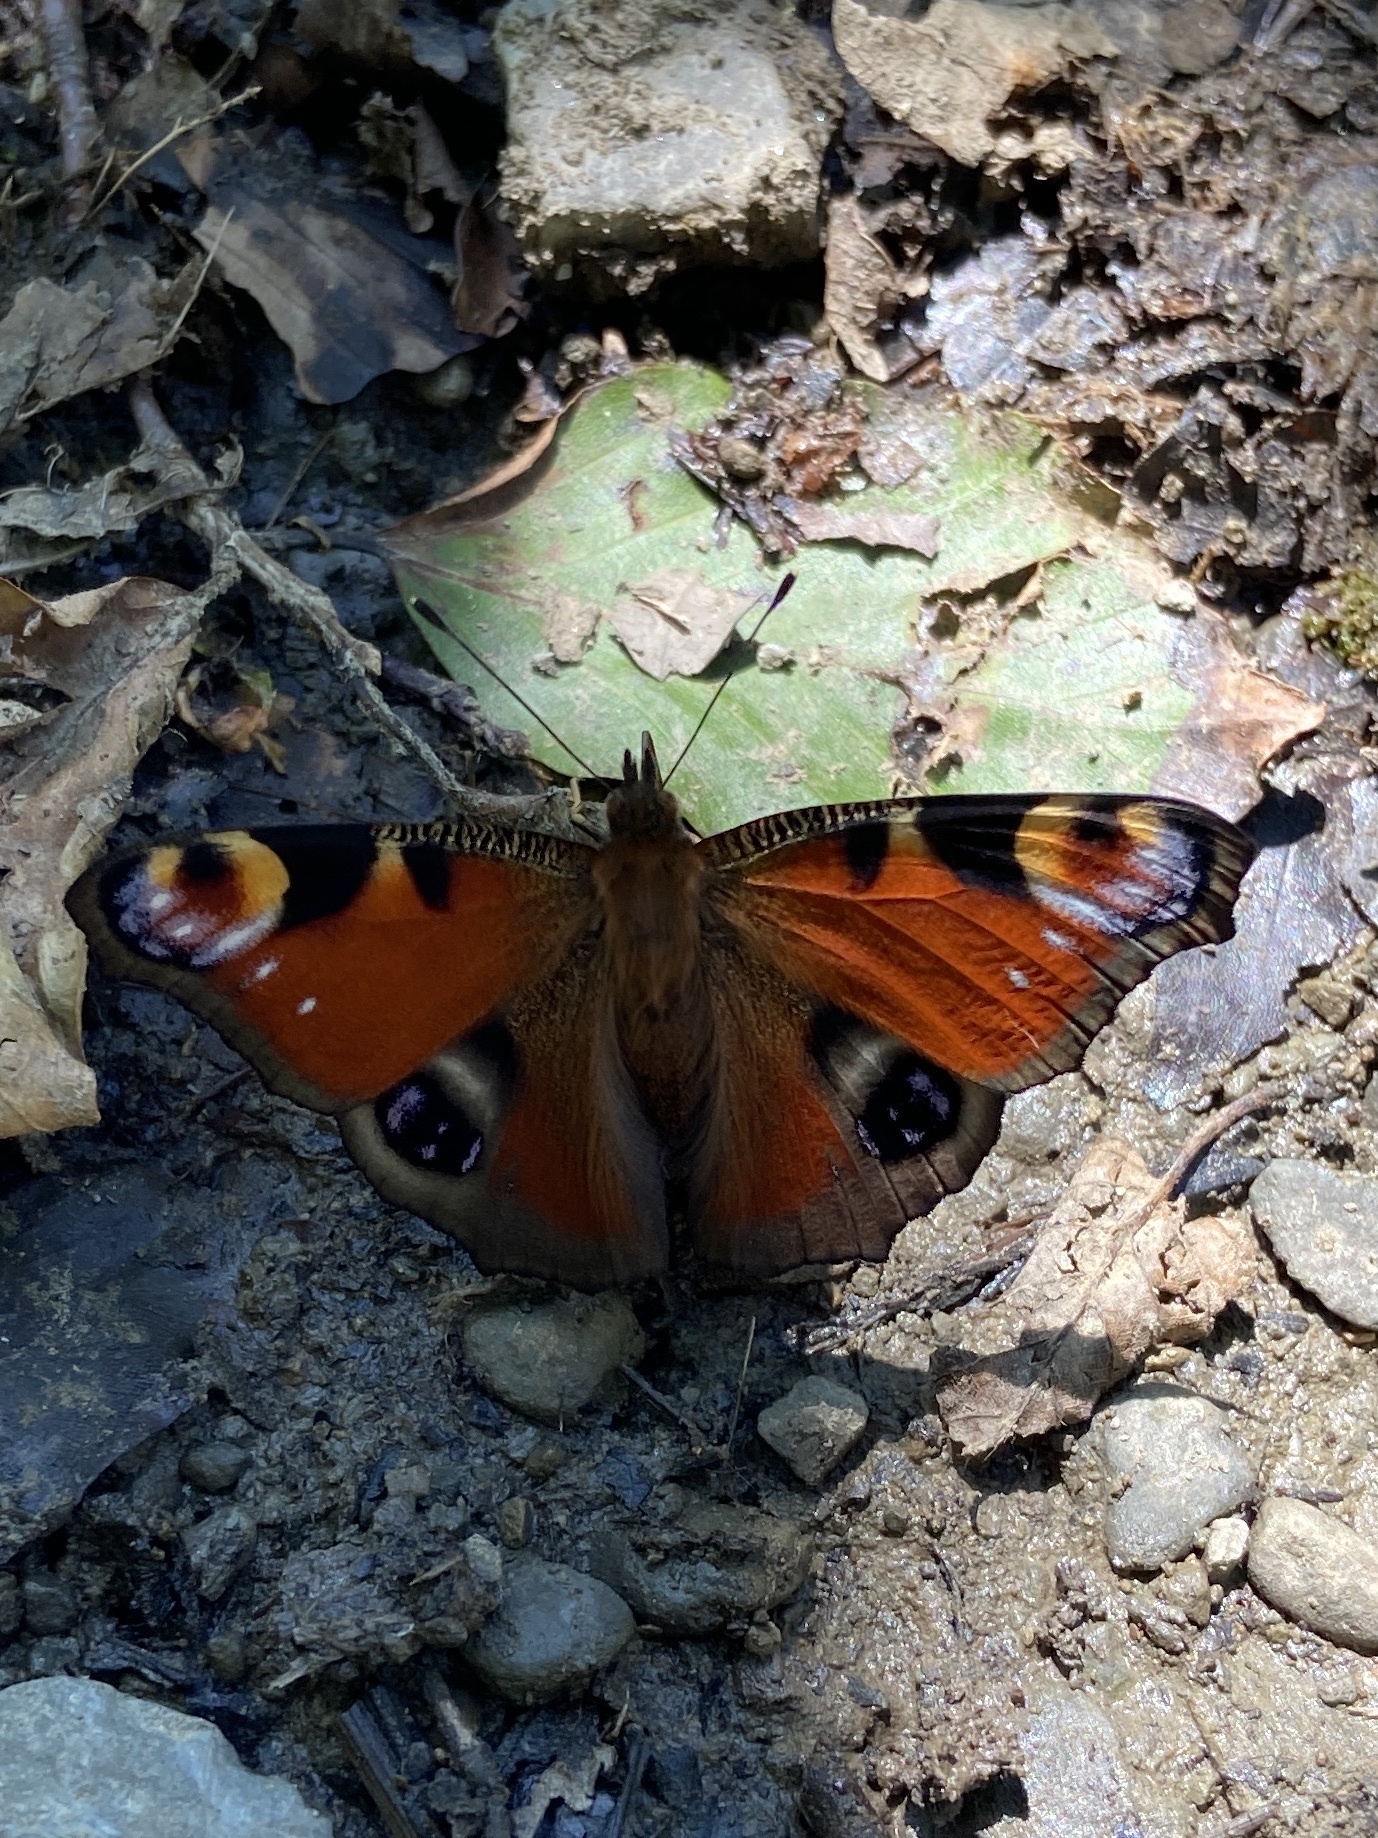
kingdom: Animalia
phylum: Arthropoda
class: Insecta
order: Lepidoptera
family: Nymphalidae
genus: Aglais
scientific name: Aglais io
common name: Peacock
